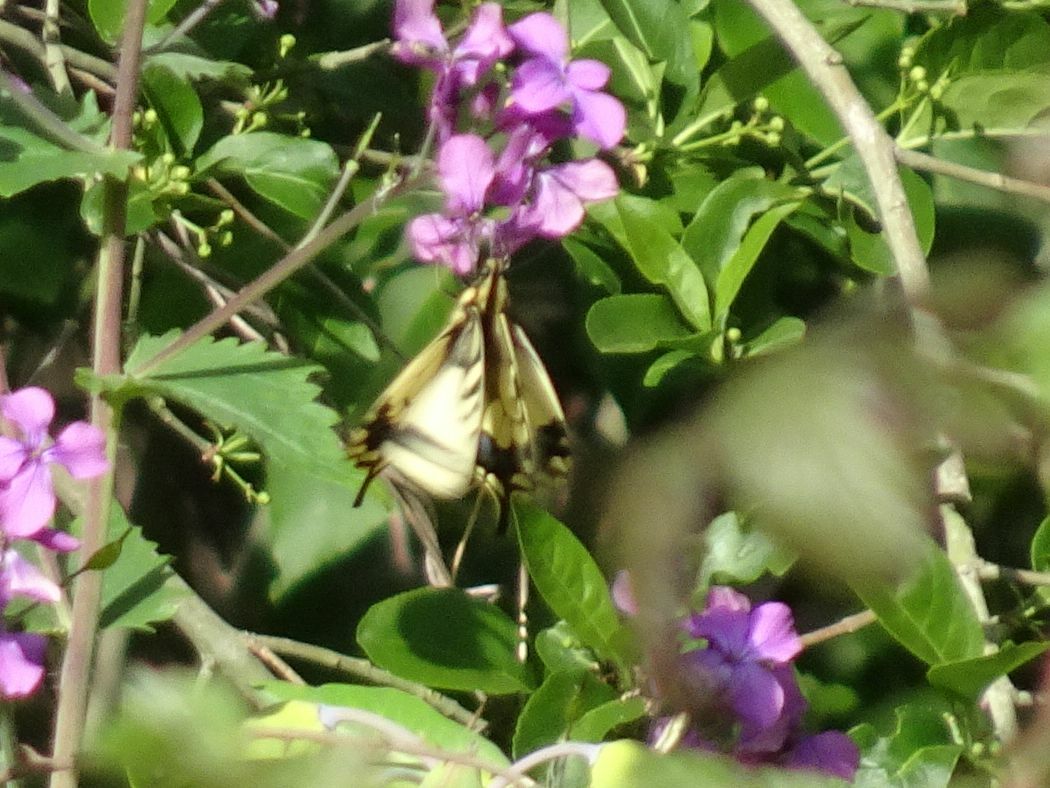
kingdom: Animalia
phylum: Arthropoda
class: Insecta
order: Lepidoptera
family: Papilionidae
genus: Papilio
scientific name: Papilio machaon
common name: Swallowtail
